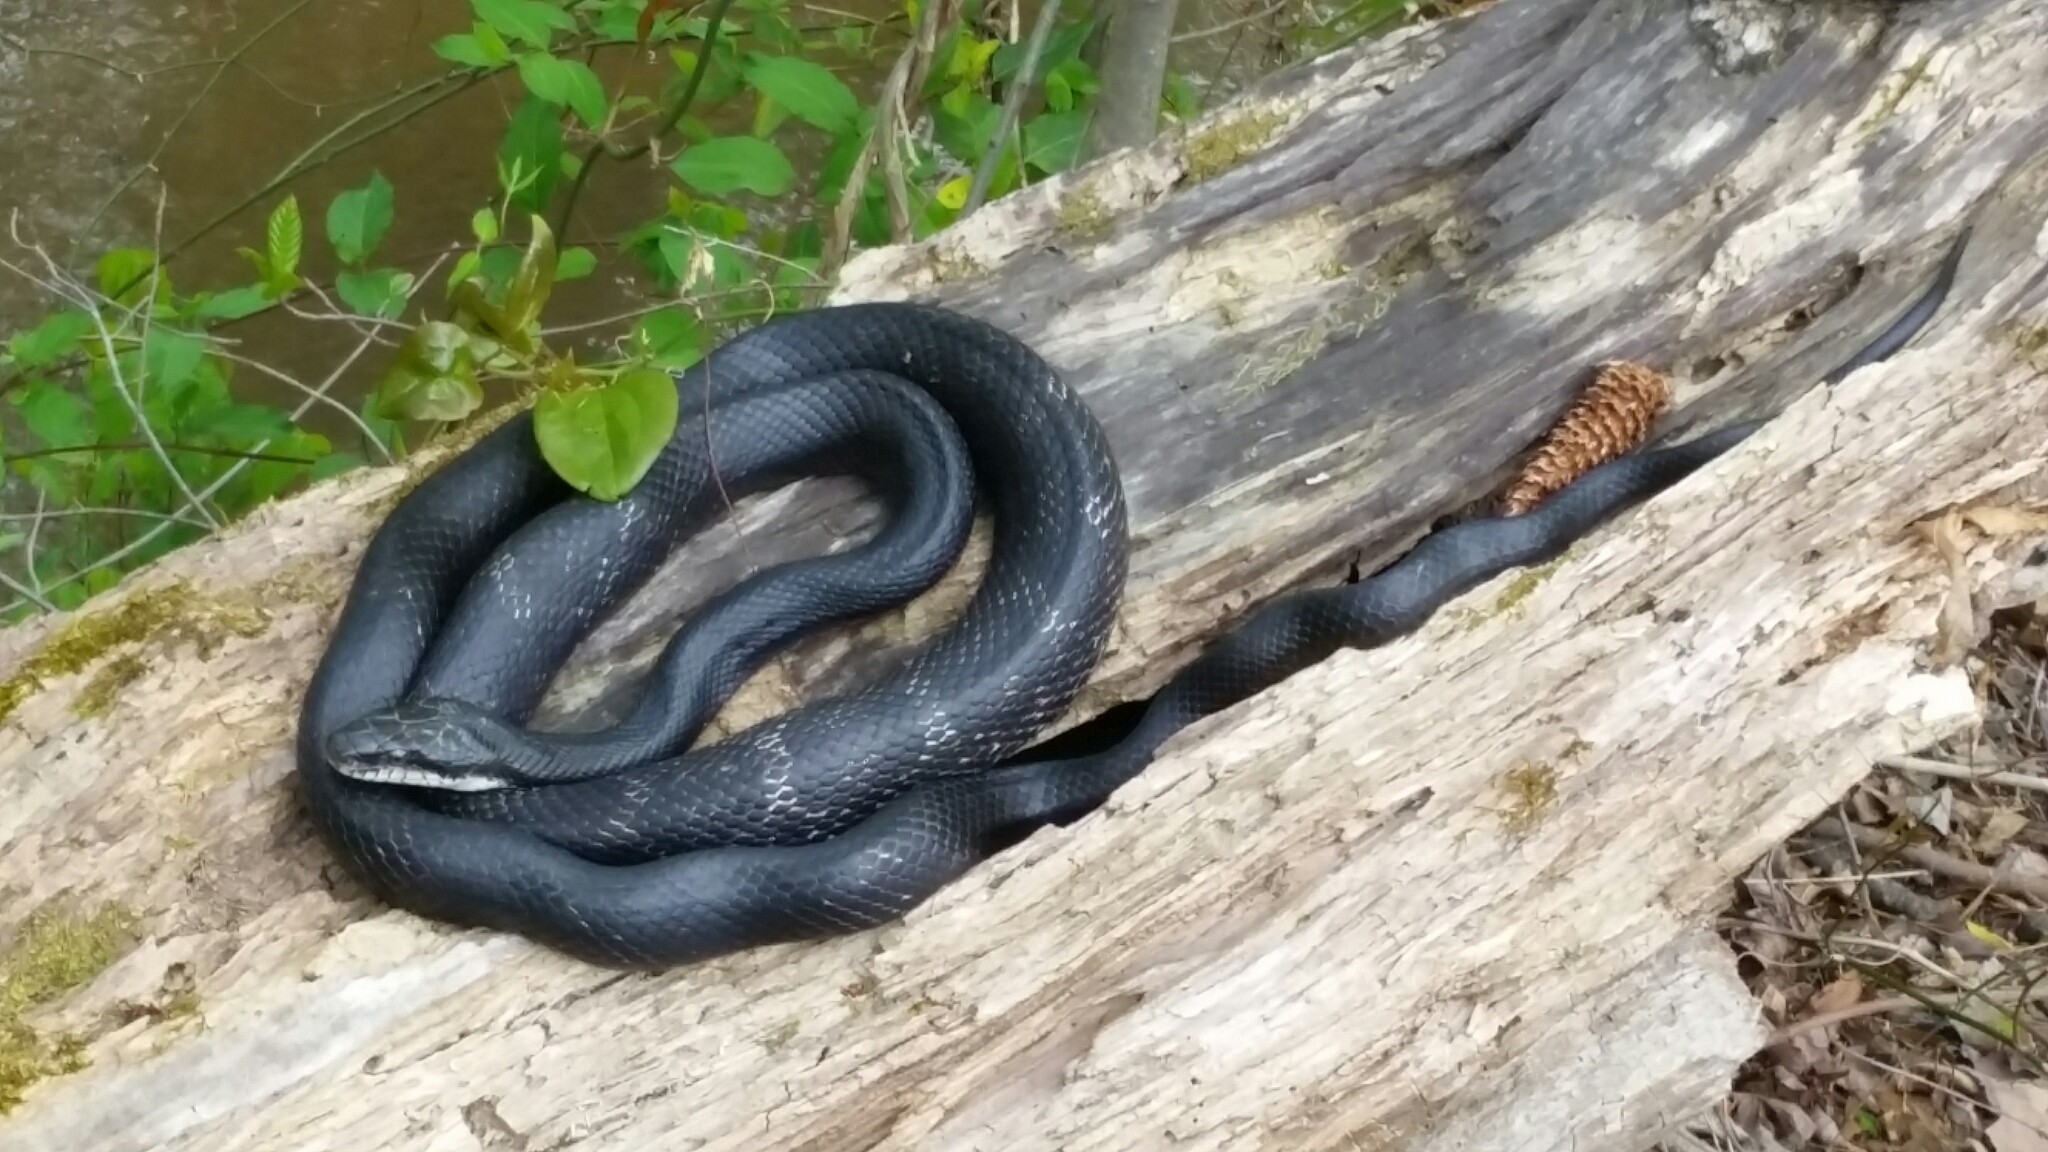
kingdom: Animalia
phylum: Chordata
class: Squamata
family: Colubridae
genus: Pantherophis
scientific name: Pantherophis alleghaniensis
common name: Eastern rat snake
